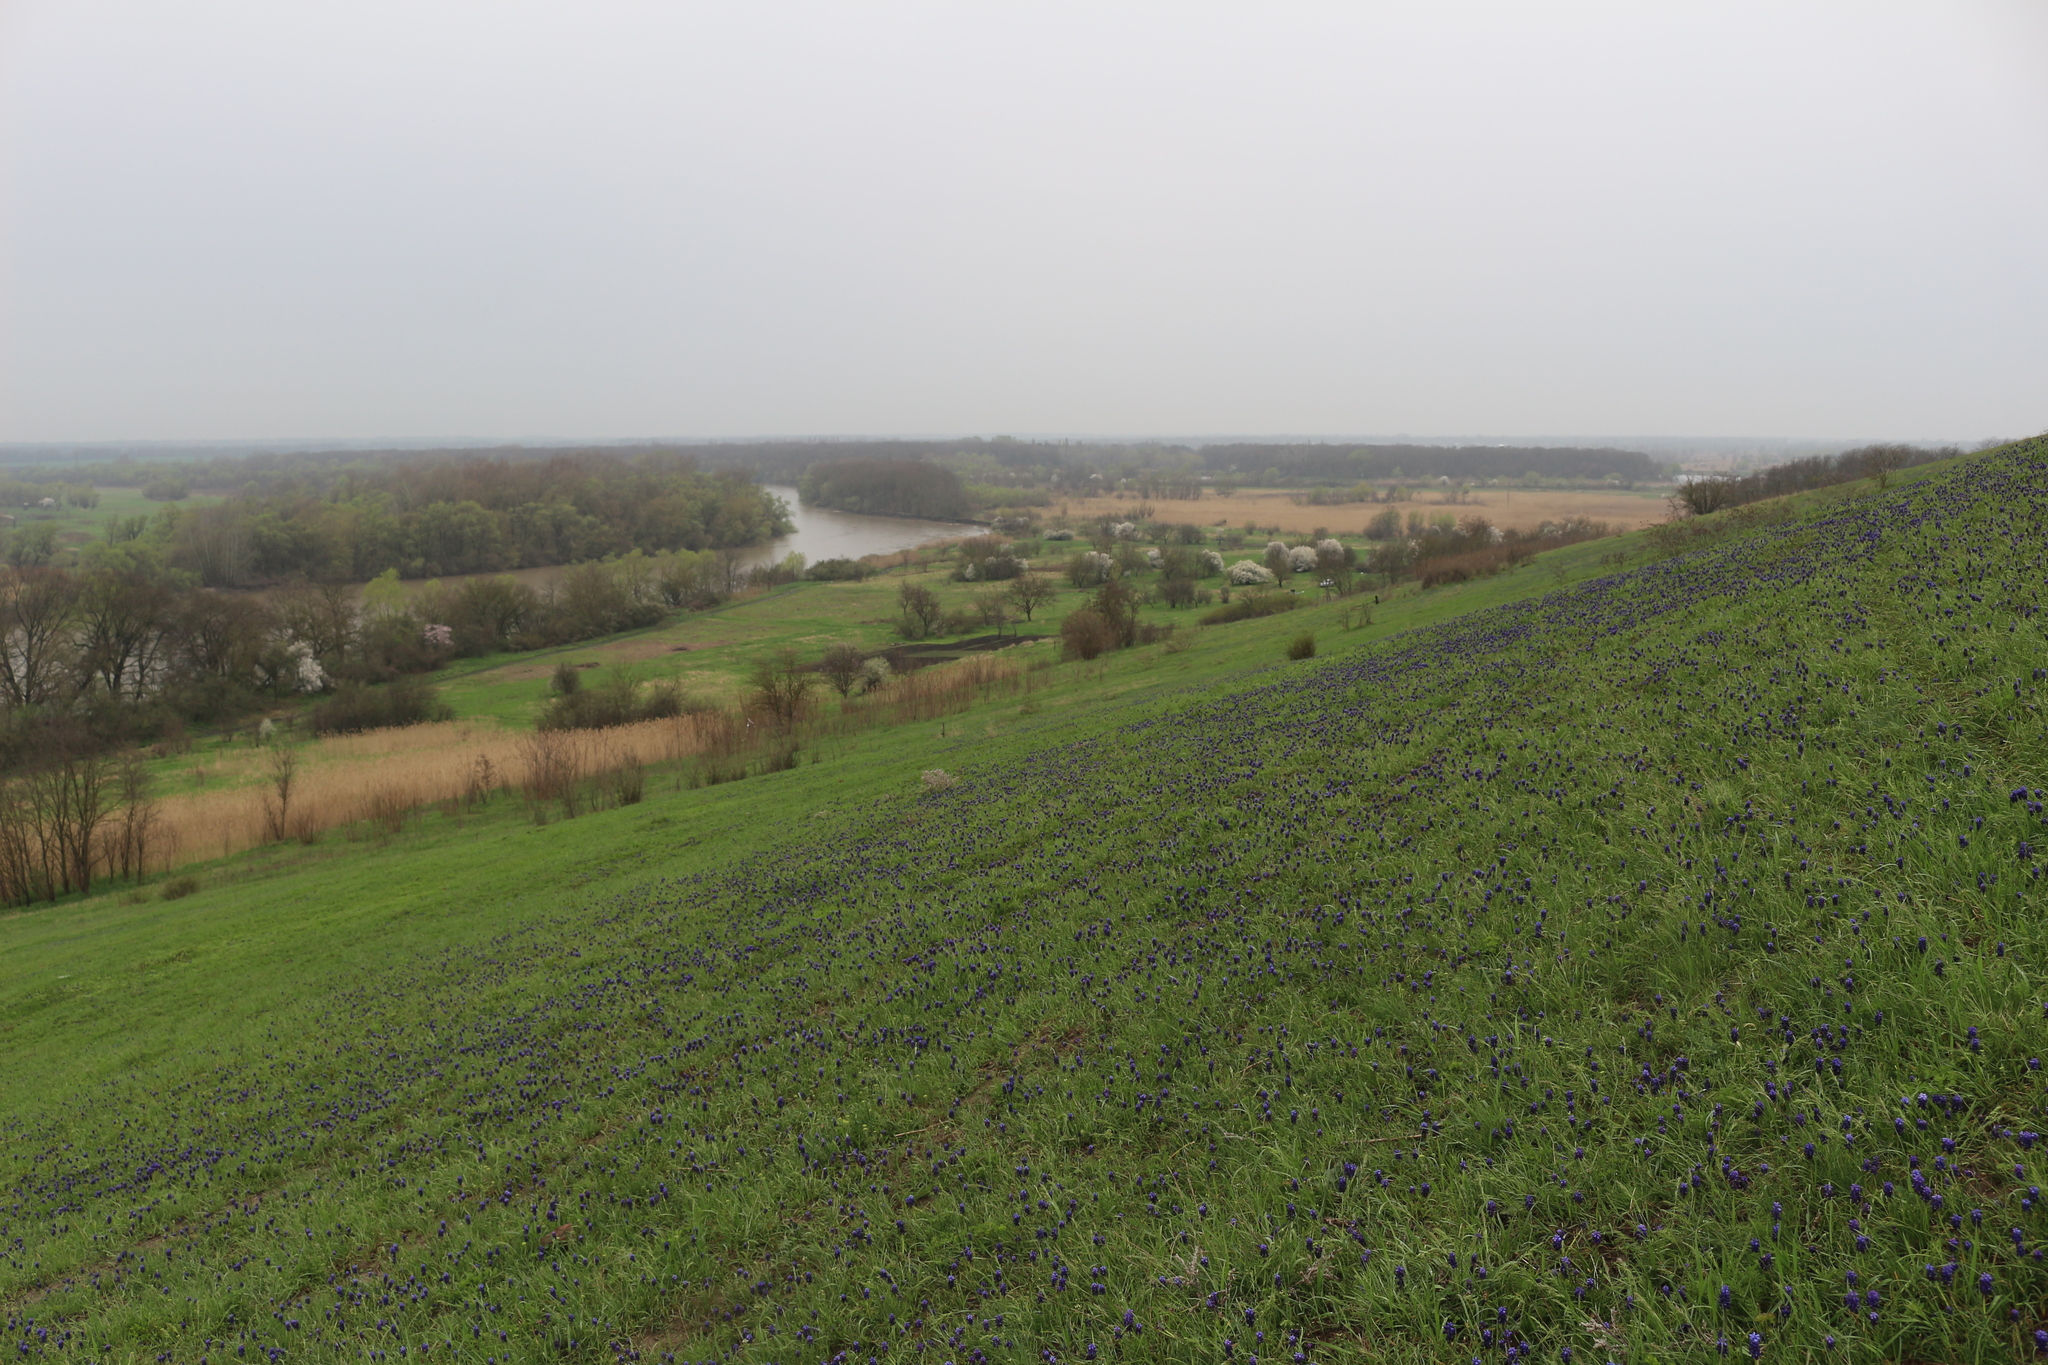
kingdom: Plantae
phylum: Tracheophyta
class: Liliopsida
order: Asparagales
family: Asparagaceae
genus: Muscari
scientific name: Muscari neglectum
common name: Grape-hyacinth
